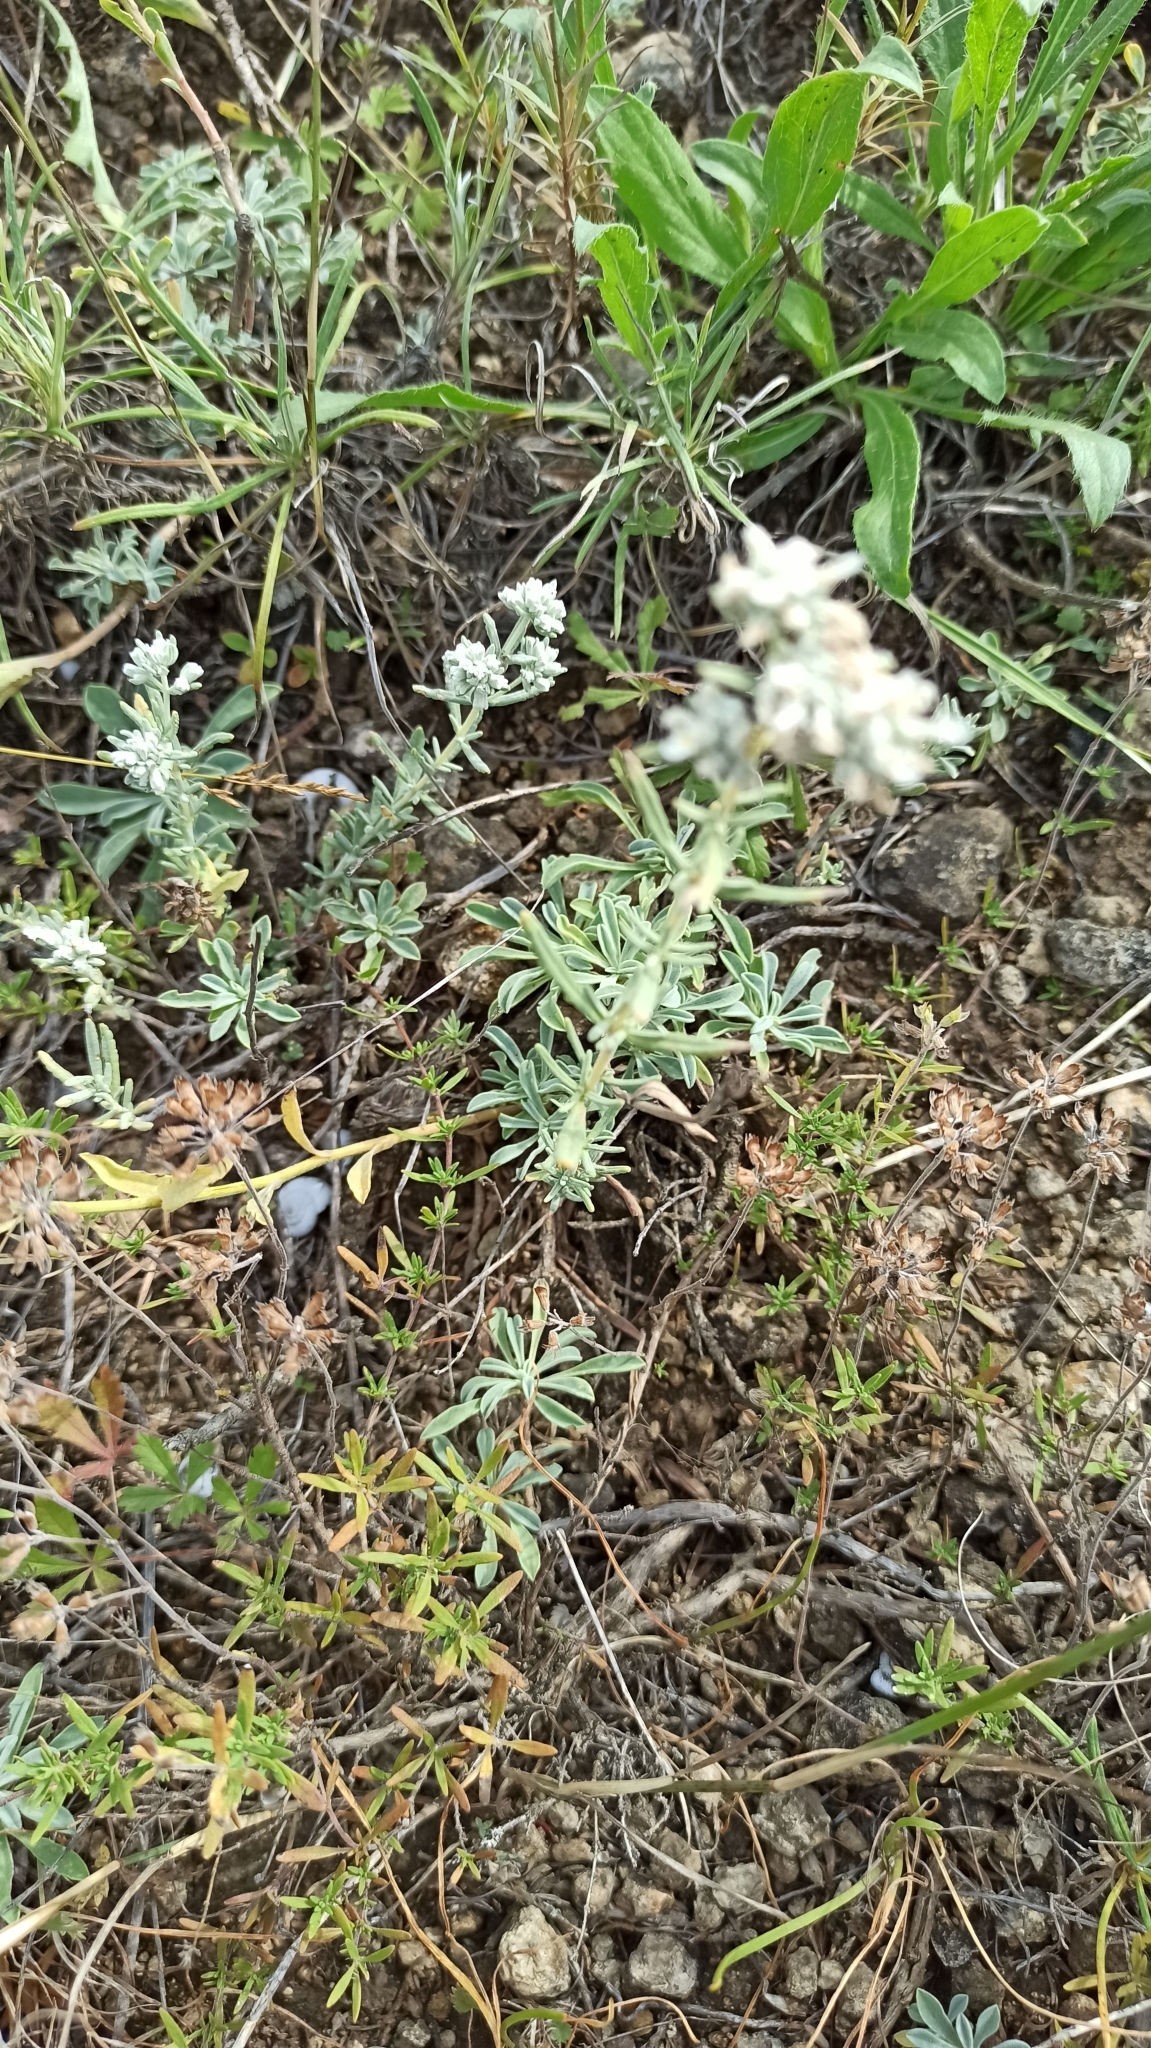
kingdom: Plantae
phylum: Tracheophyta
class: Magnoliopsida
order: Lamiales
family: Lamiaceae
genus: Teucrium
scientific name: Teucrium polium
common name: Poley
